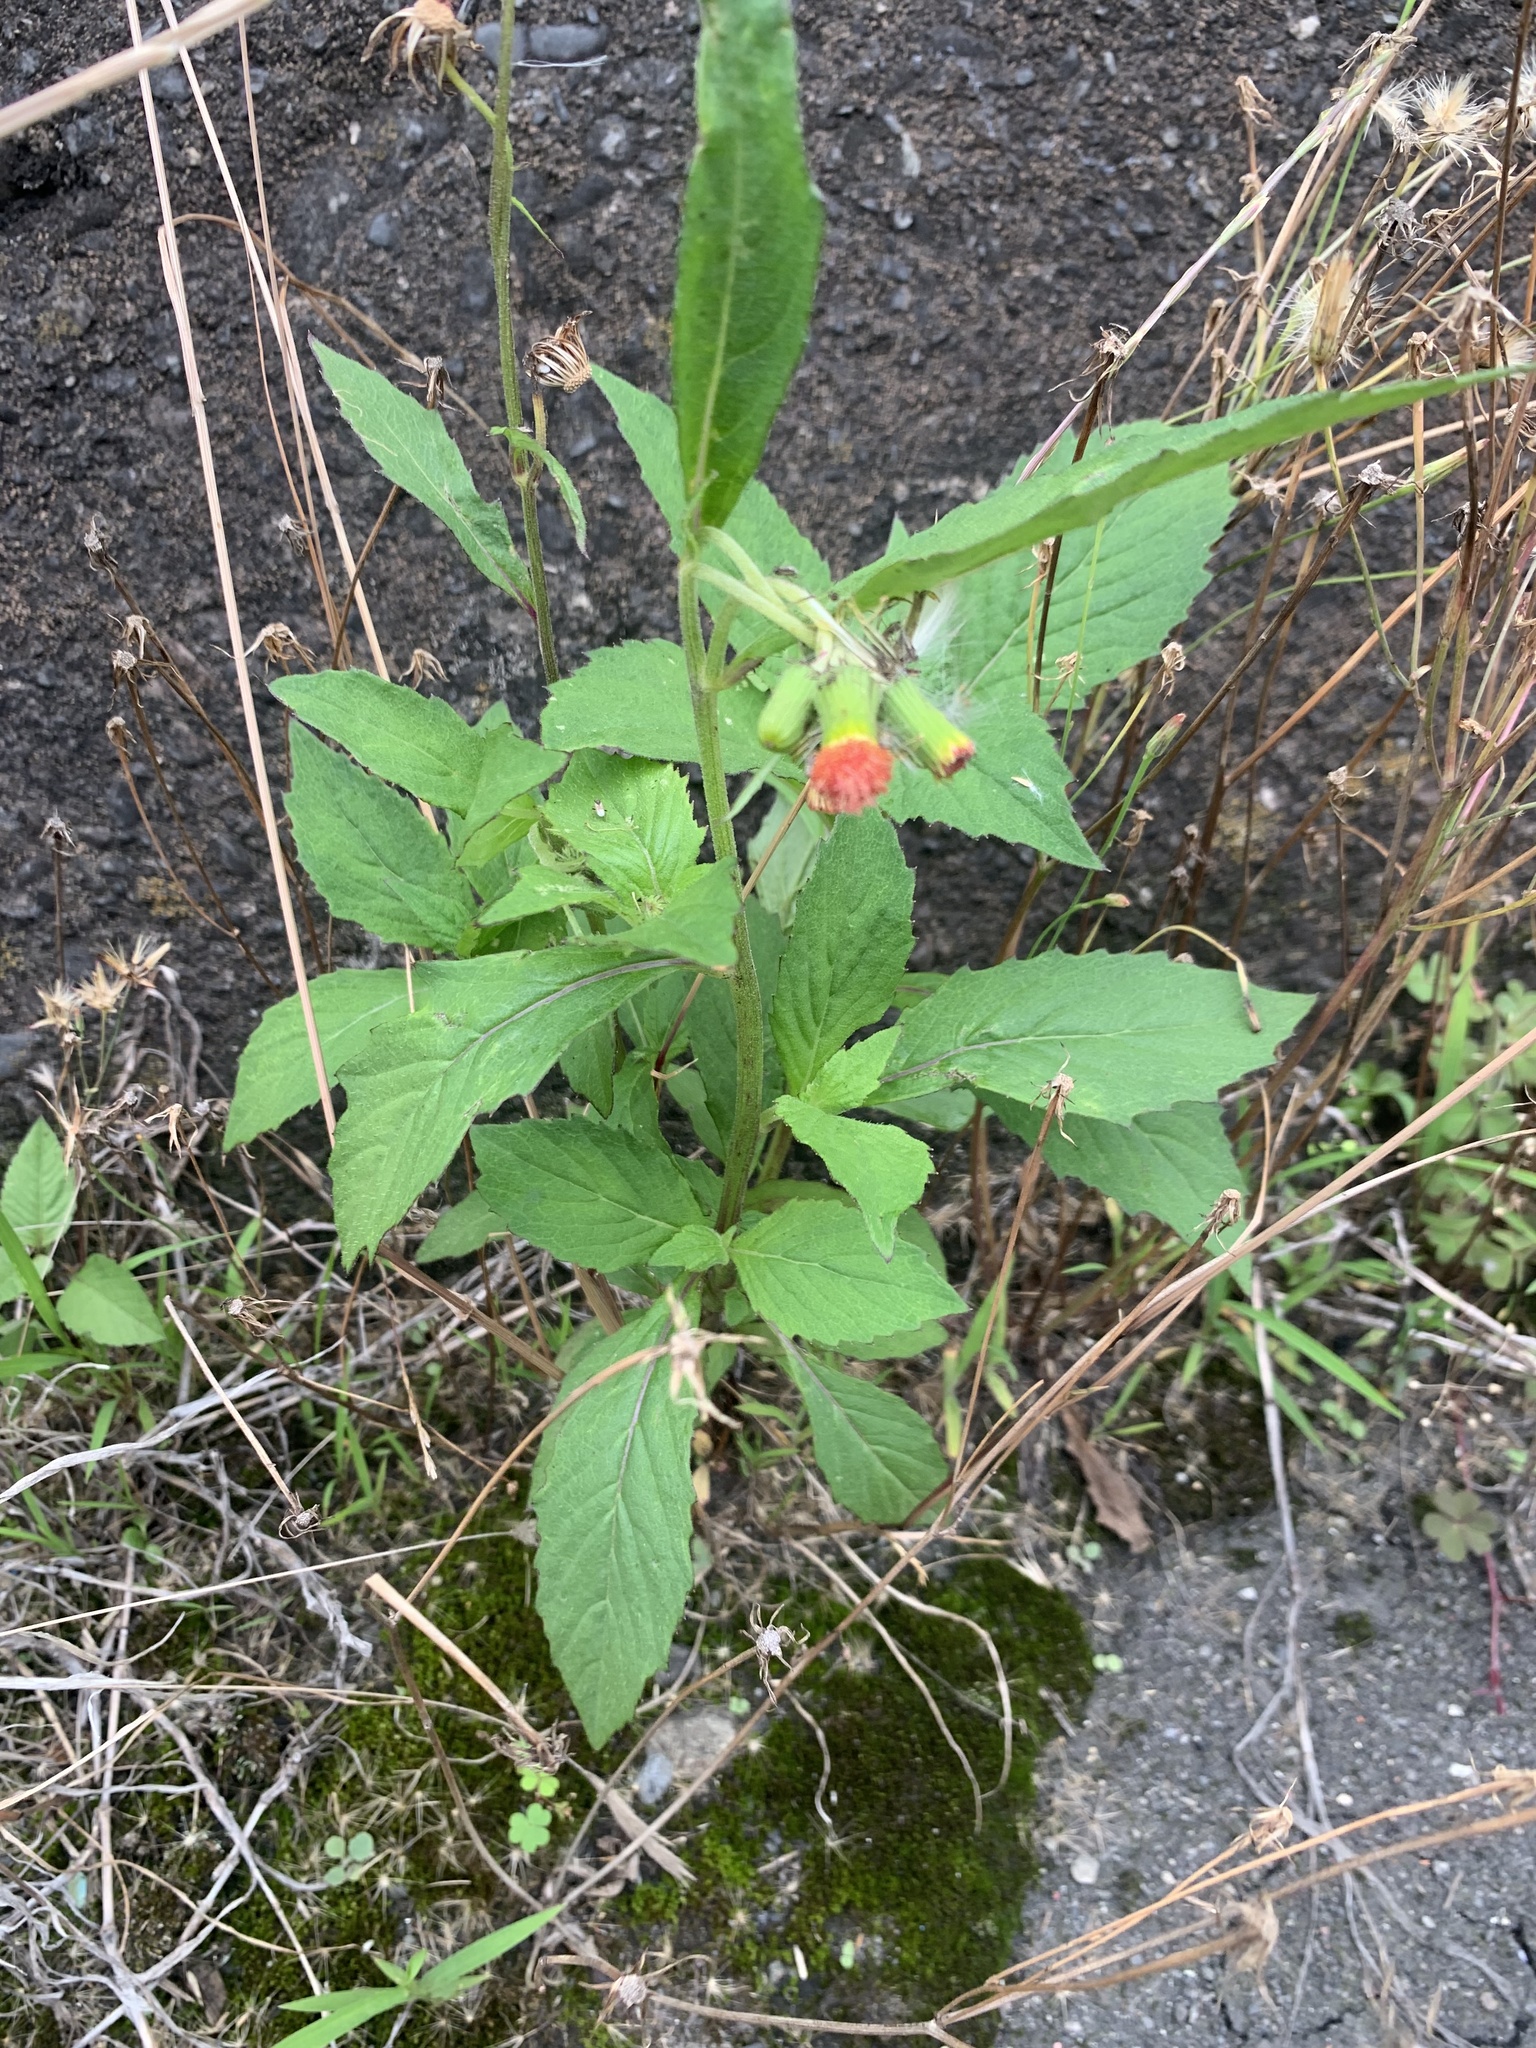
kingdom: Plantae
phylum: Tracheophyta
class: Magnoliopsida
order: Asterales
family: Asteraceae
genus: Crassocephalum
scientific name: Crassocephalum crepidioides
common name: Redflower ragleaf
